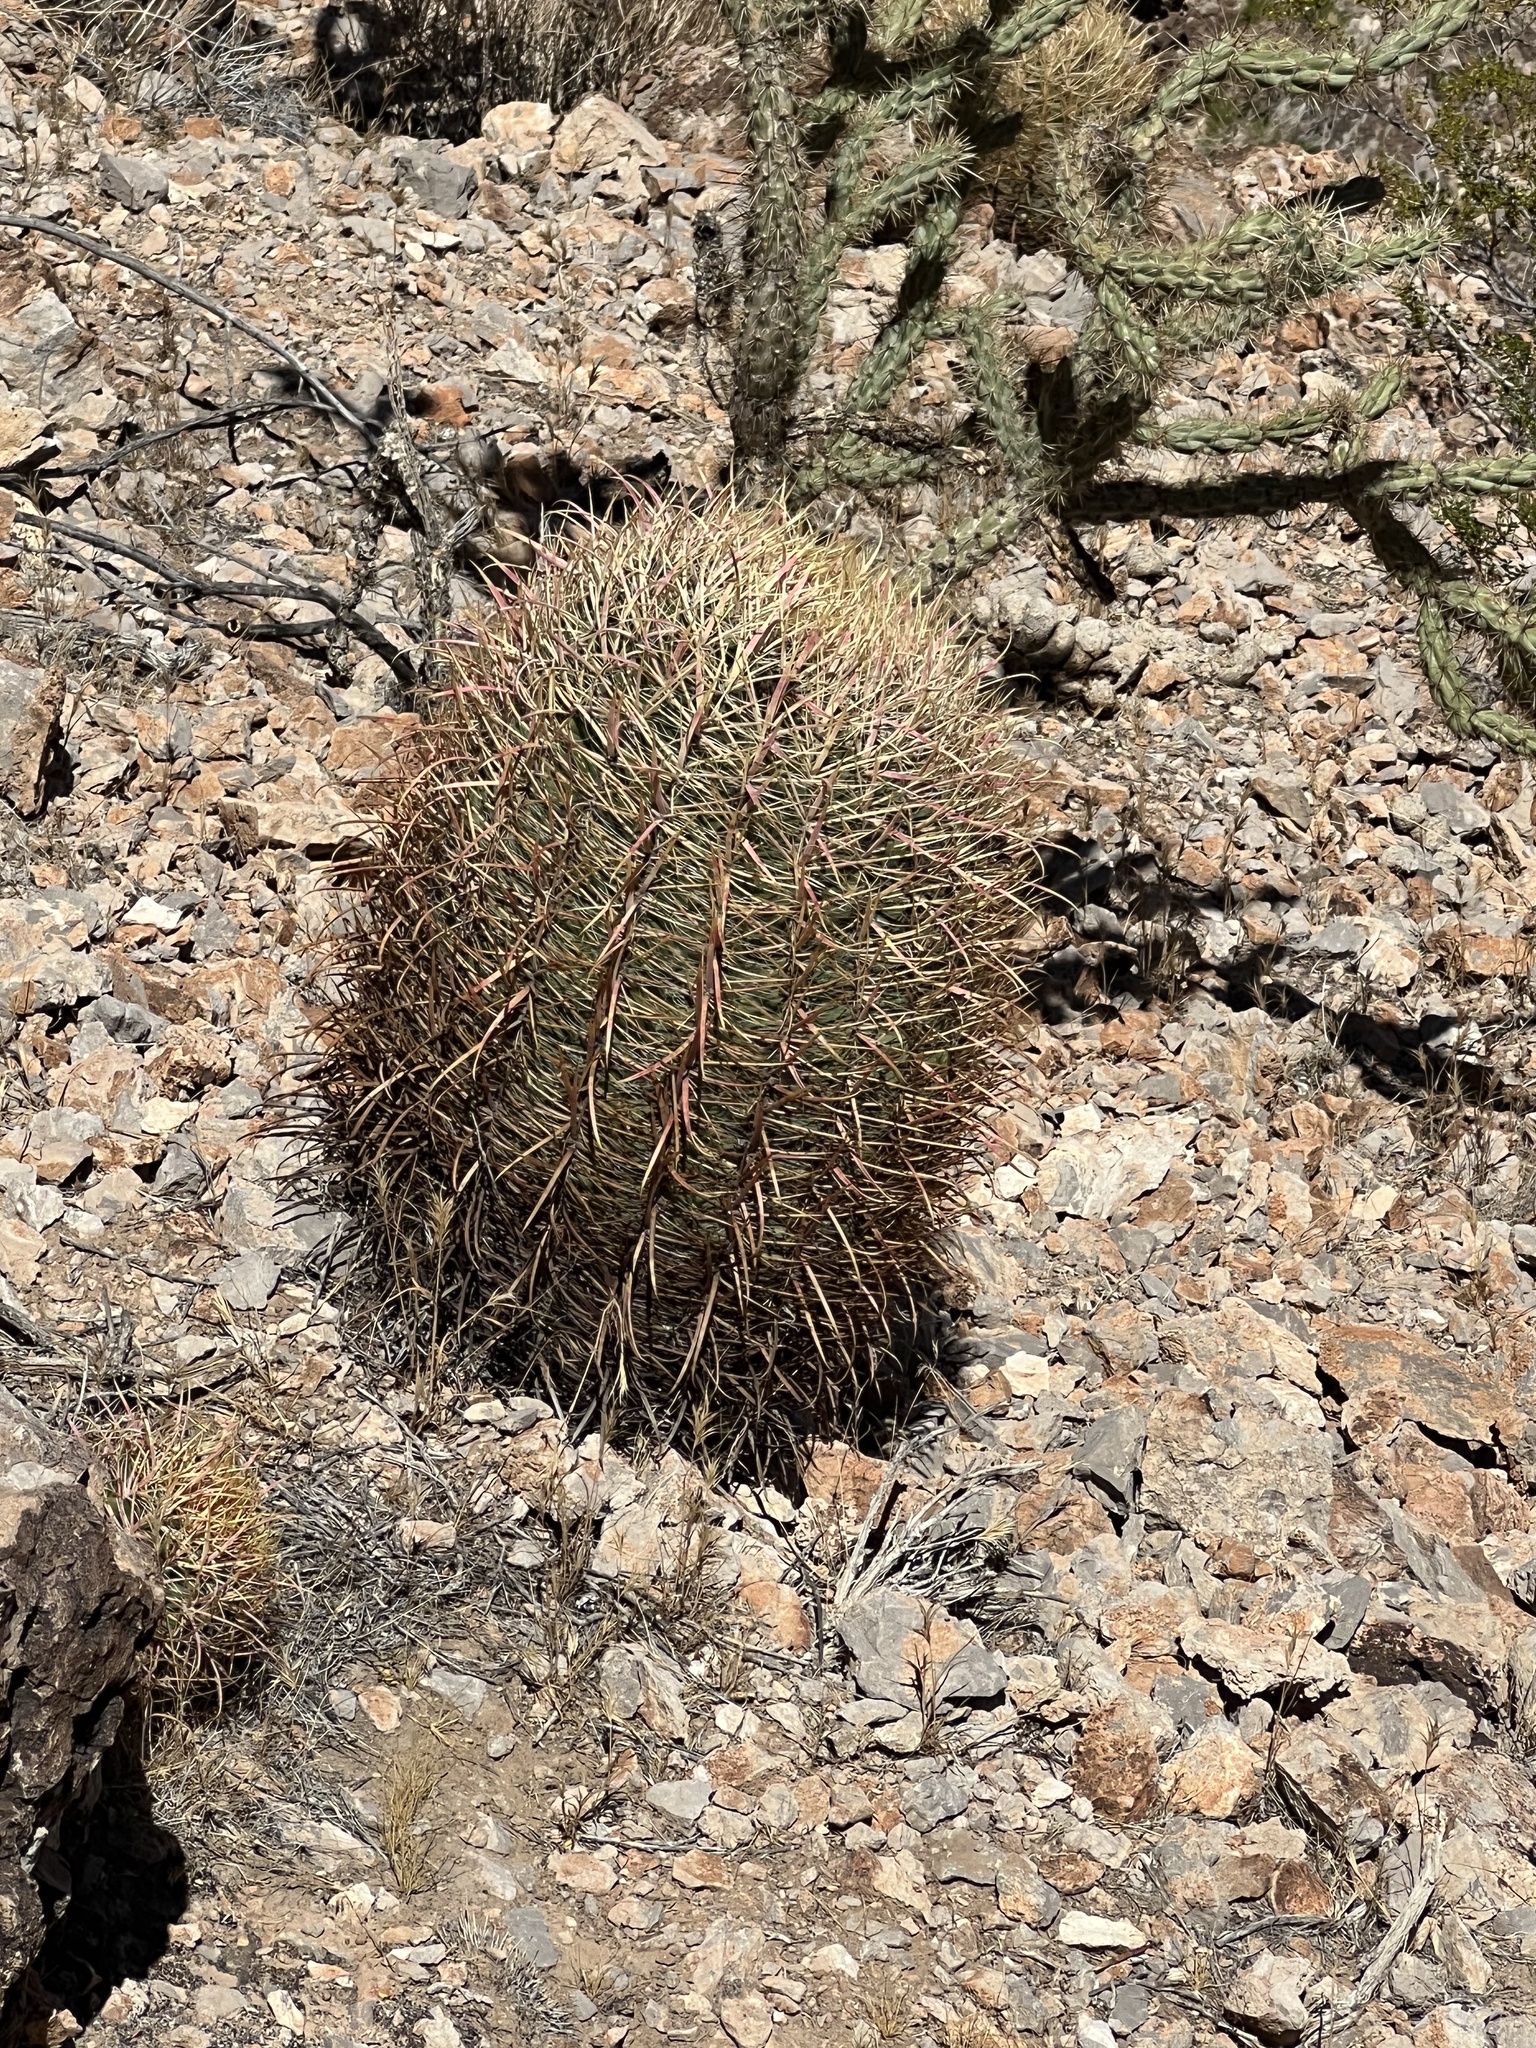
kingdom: Plantae
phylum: Tracheophyta
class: Magnoliopsida
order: Caryophyllales
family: Cactaceae
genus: Ferocactus
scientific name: Ferocactus cylindraceus
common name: California barrel cactus
